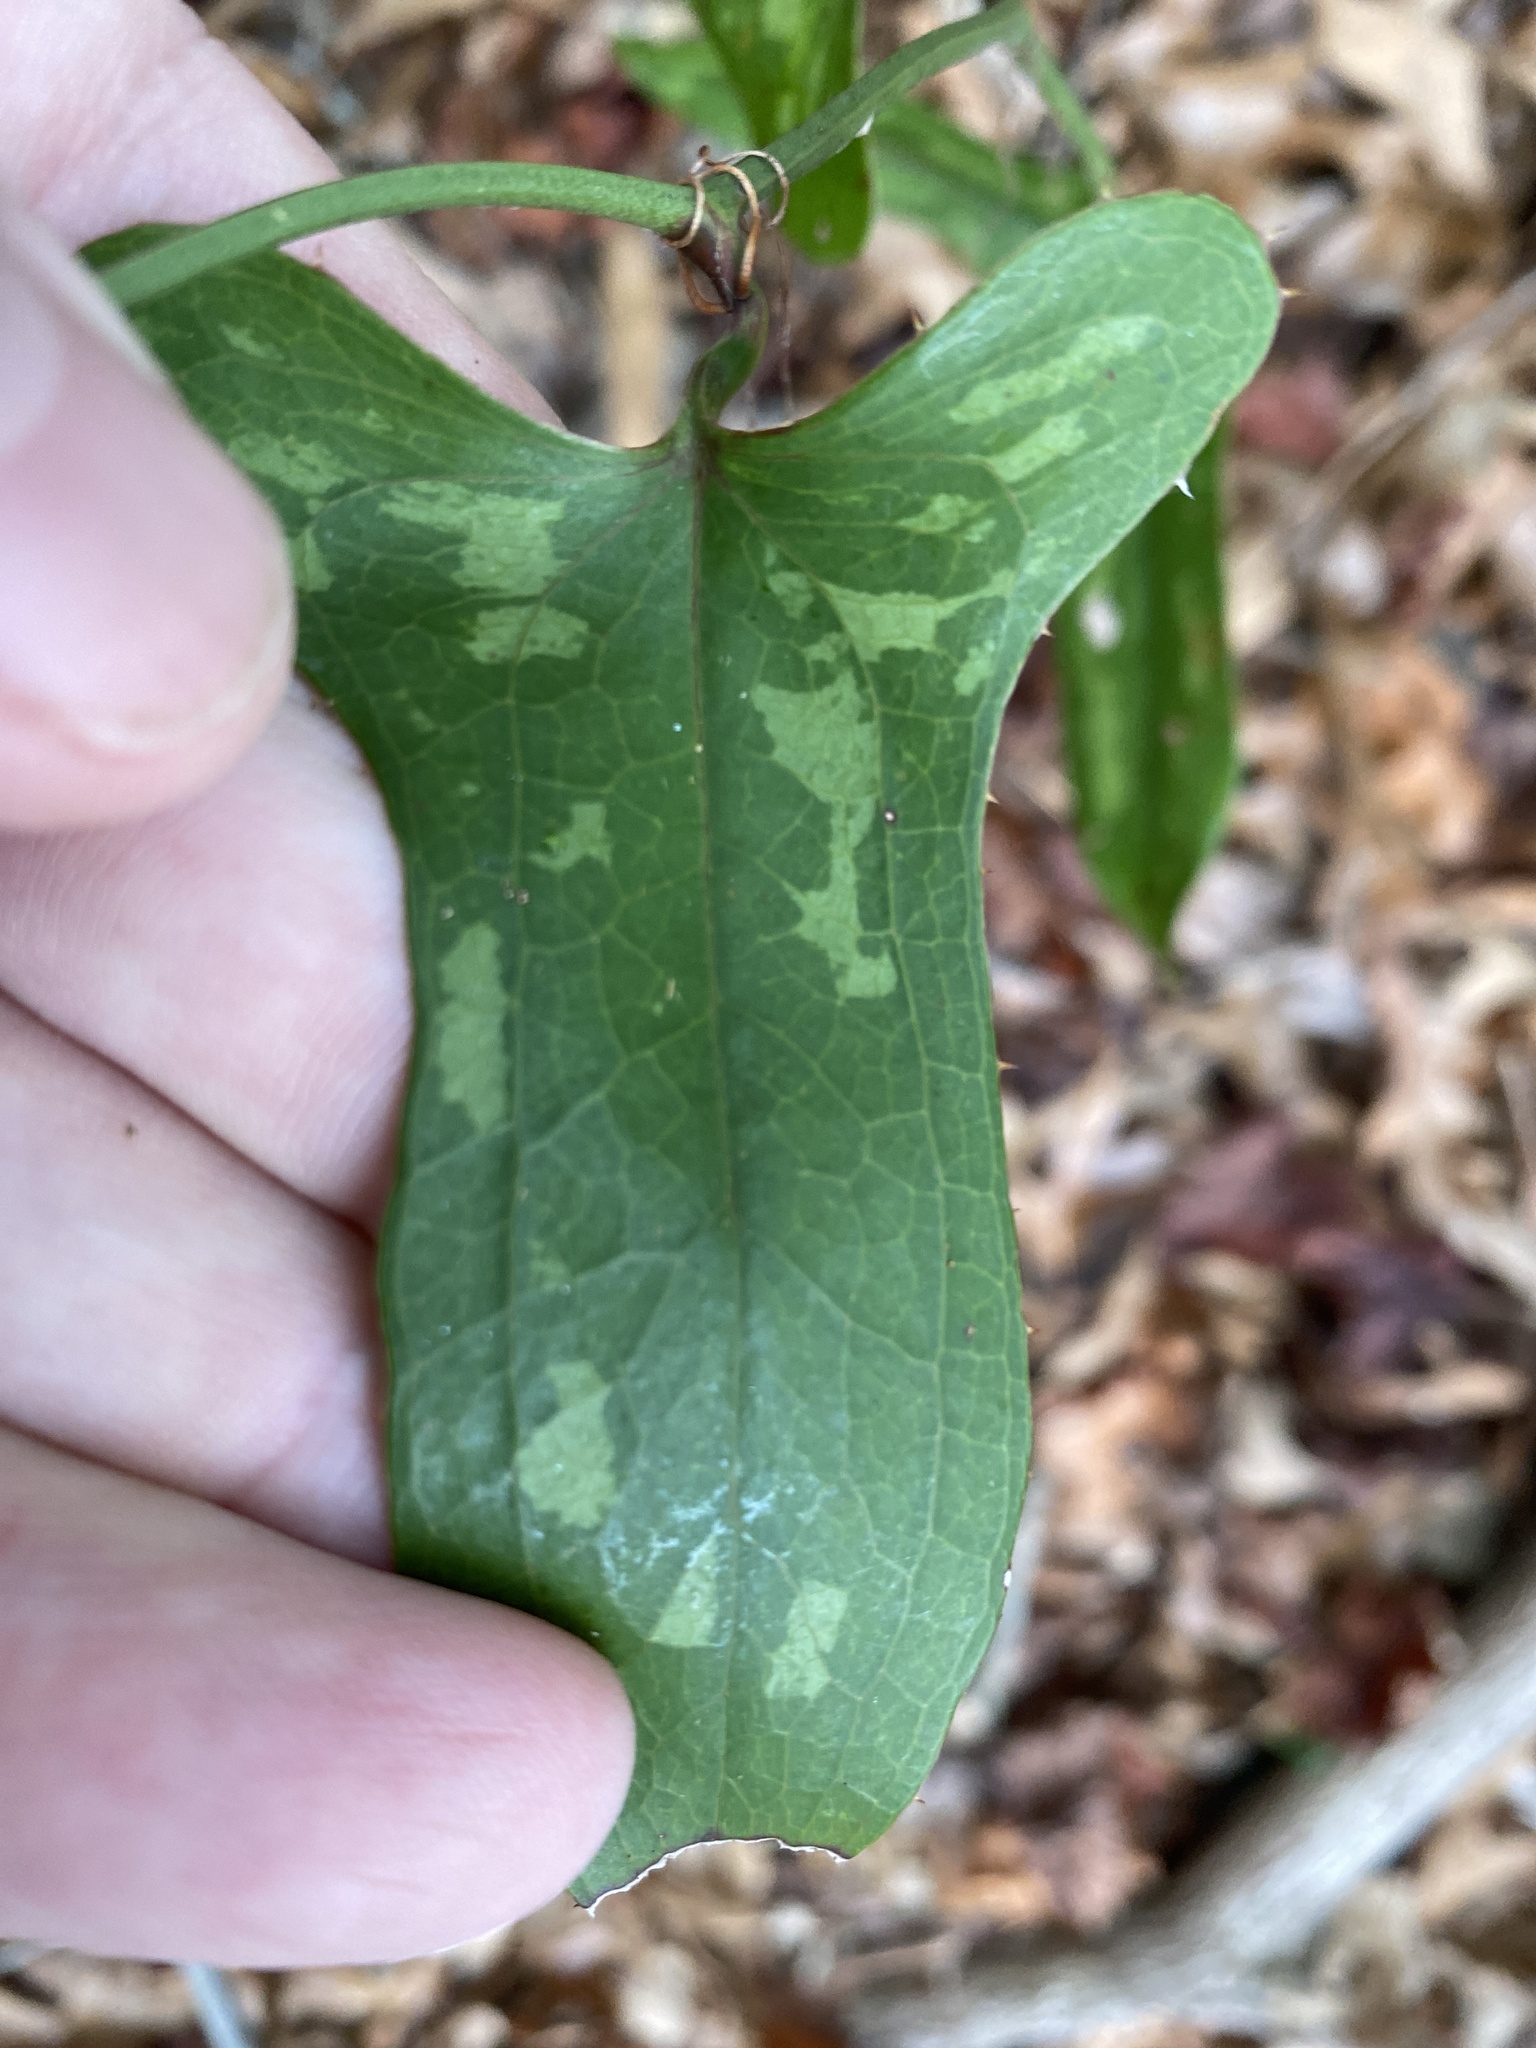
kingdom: Plantae
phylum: Tracheophyta
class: Liliopsida
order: Liliales
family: Smilacaceae
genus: Smilax
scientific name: Smilax bona-nox
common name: Catbrier
